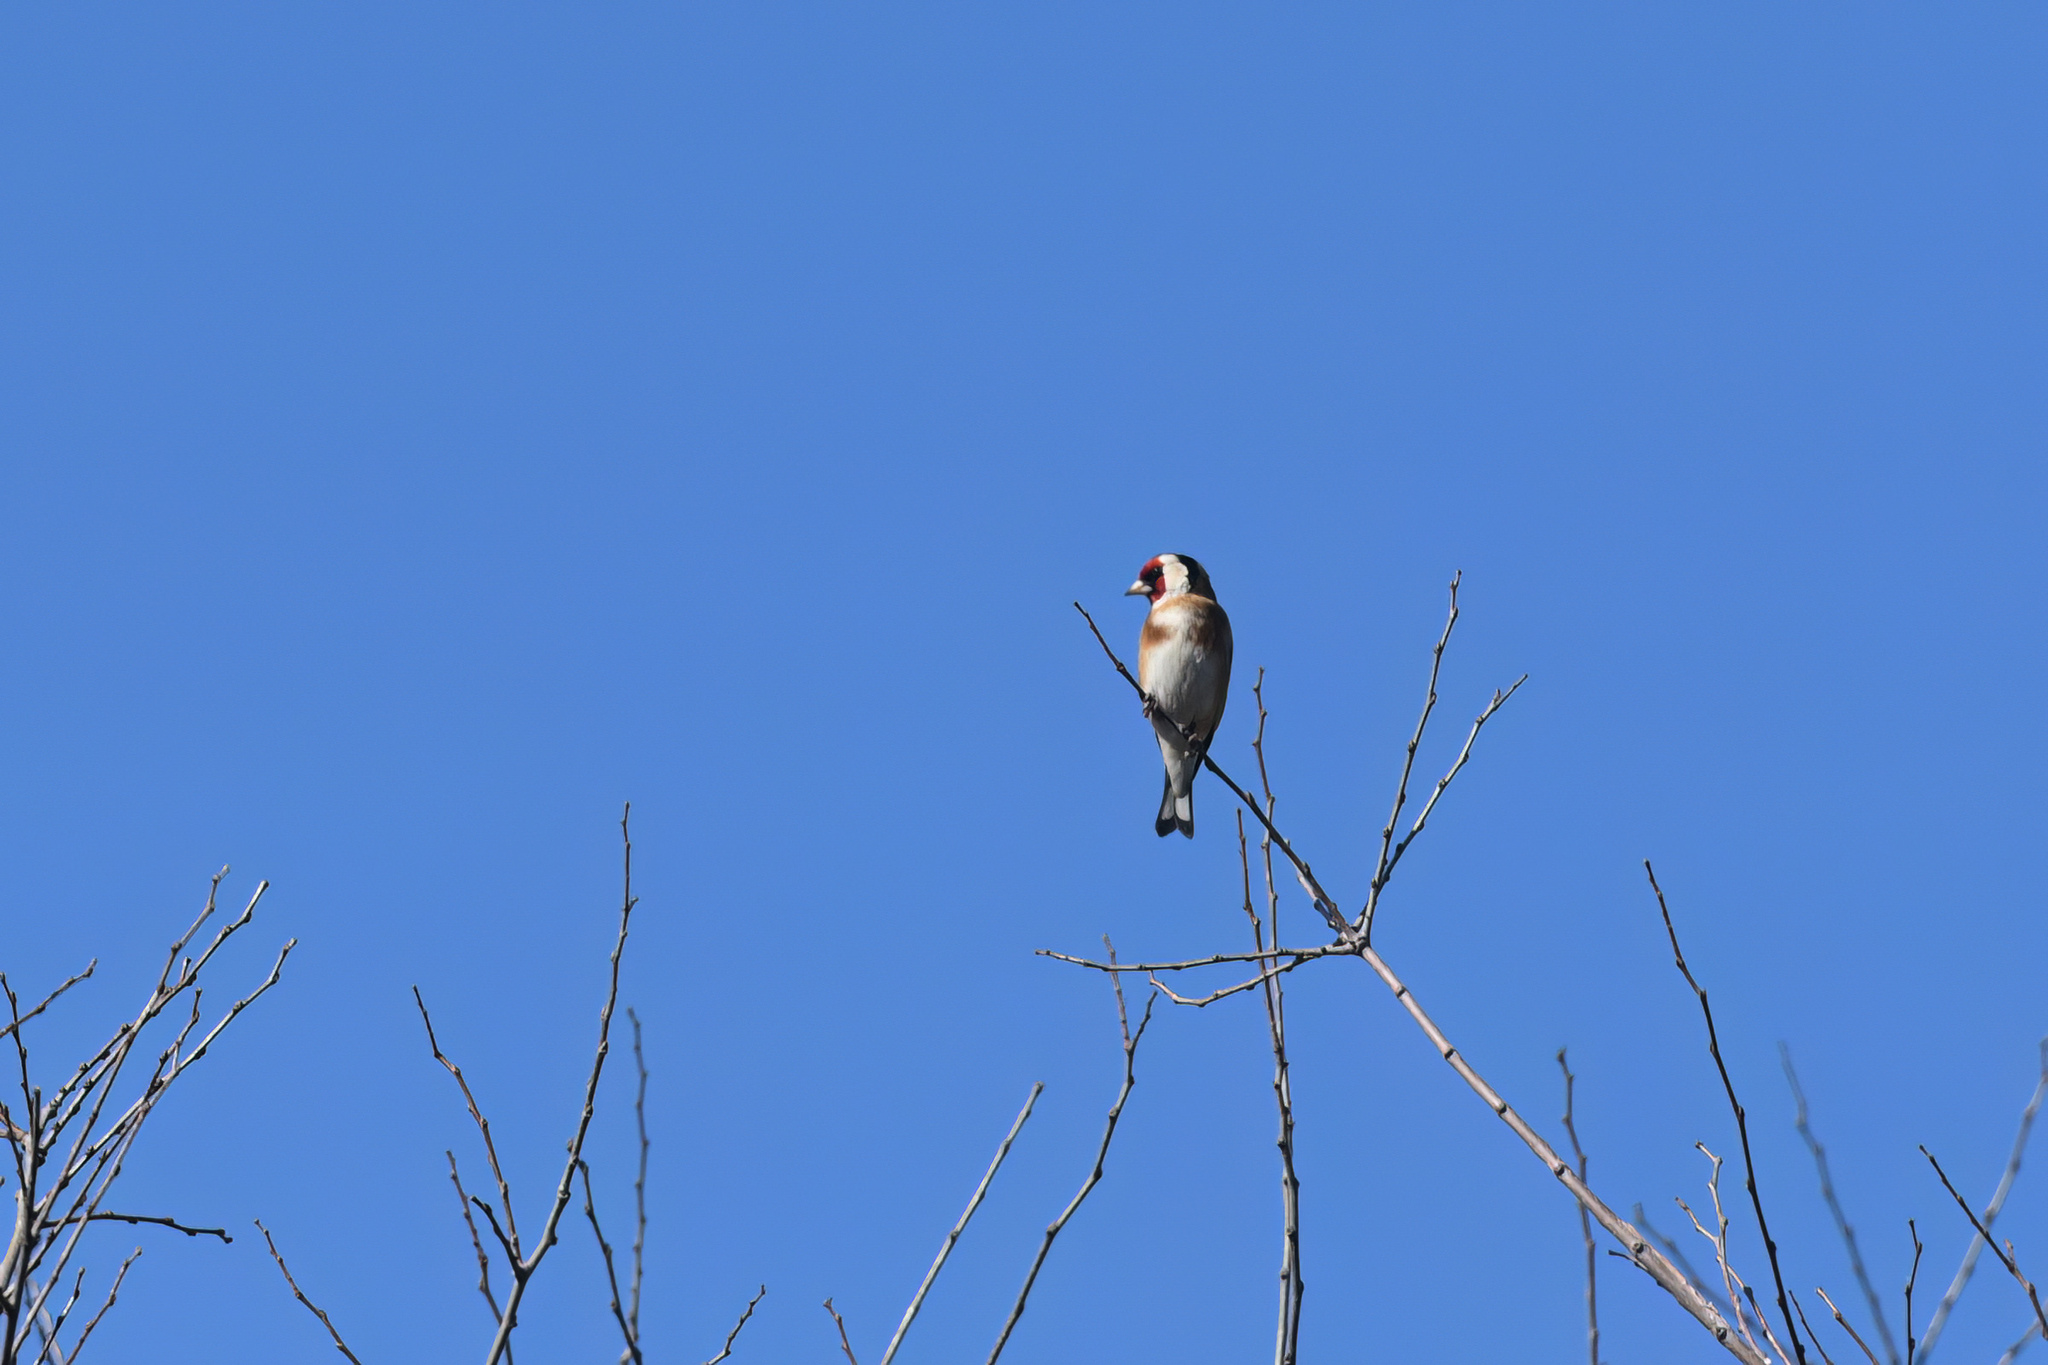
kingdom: Animalia
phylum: Chordata
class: Aves
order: Passeriformes
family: Fringillidae
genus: Carduelis
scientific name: Carduelis carduelis
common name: European goldfinch
